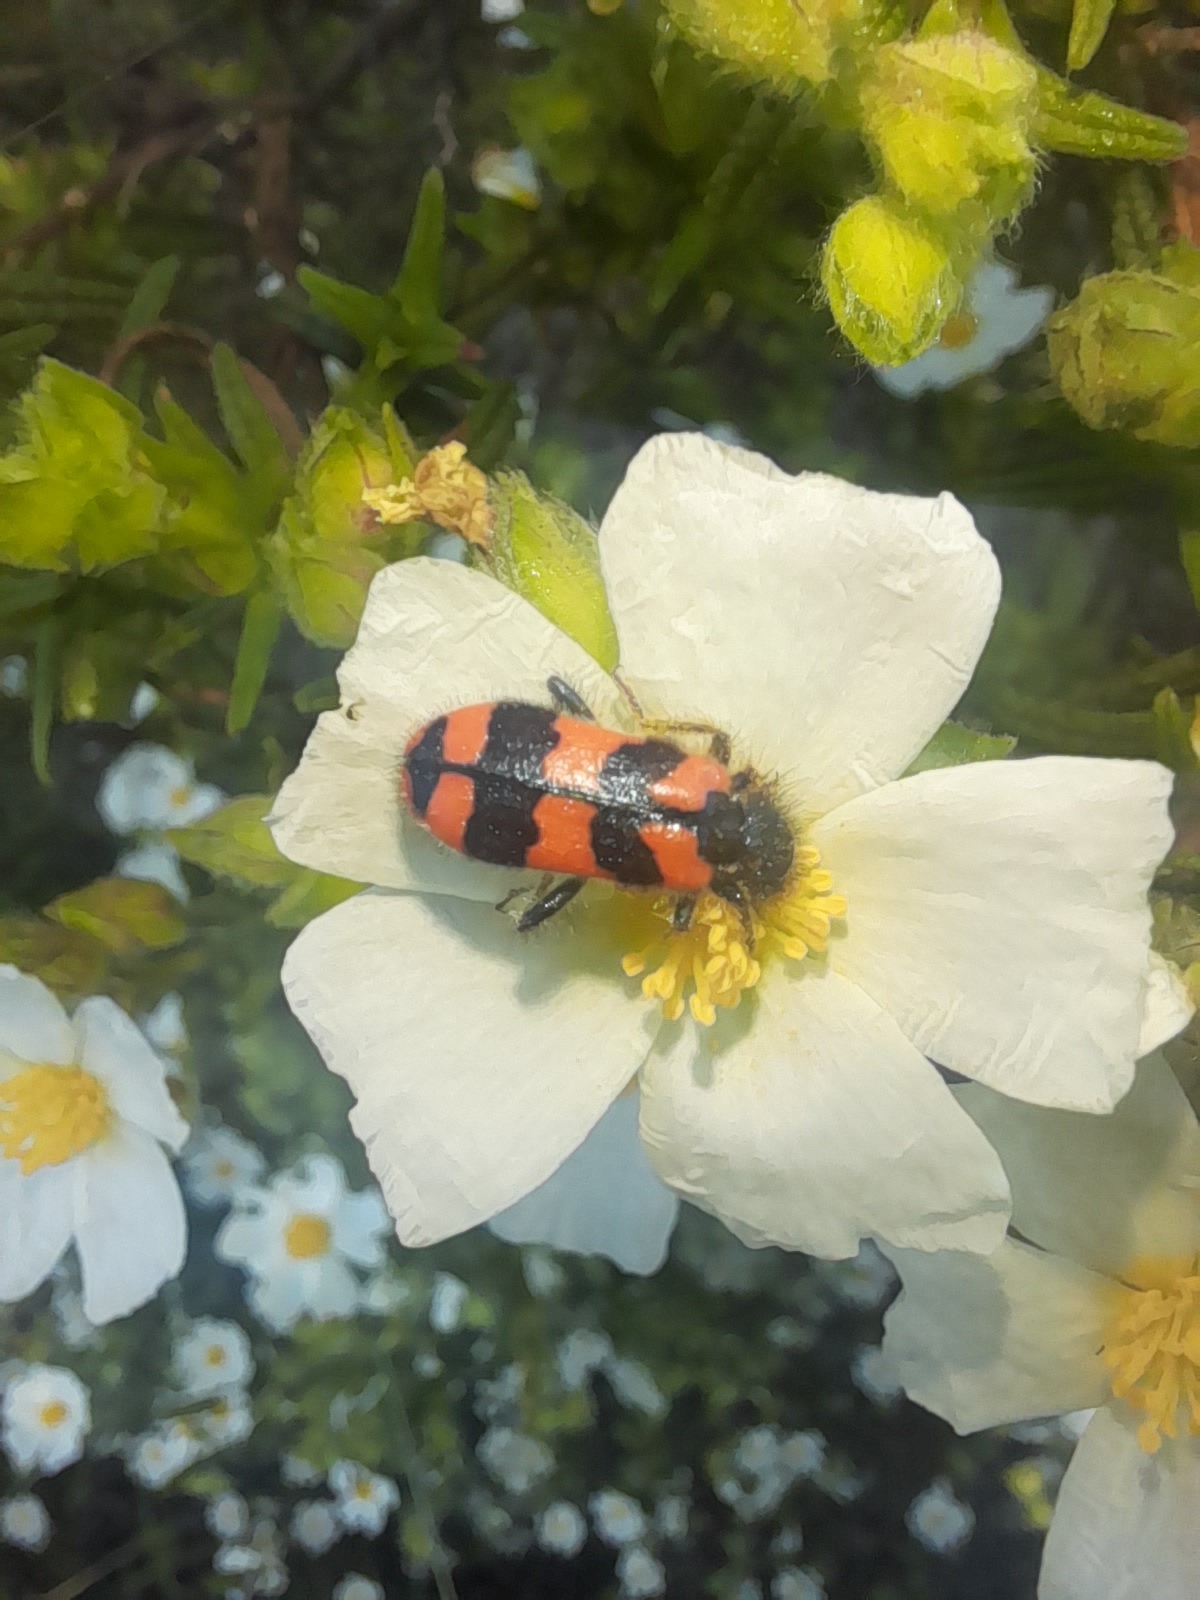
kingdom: Animalia
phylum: Arthropoda
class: Insecta
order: Coleoptera
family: Cleridae
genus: Trichodes
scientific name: Trichodes alvearius
